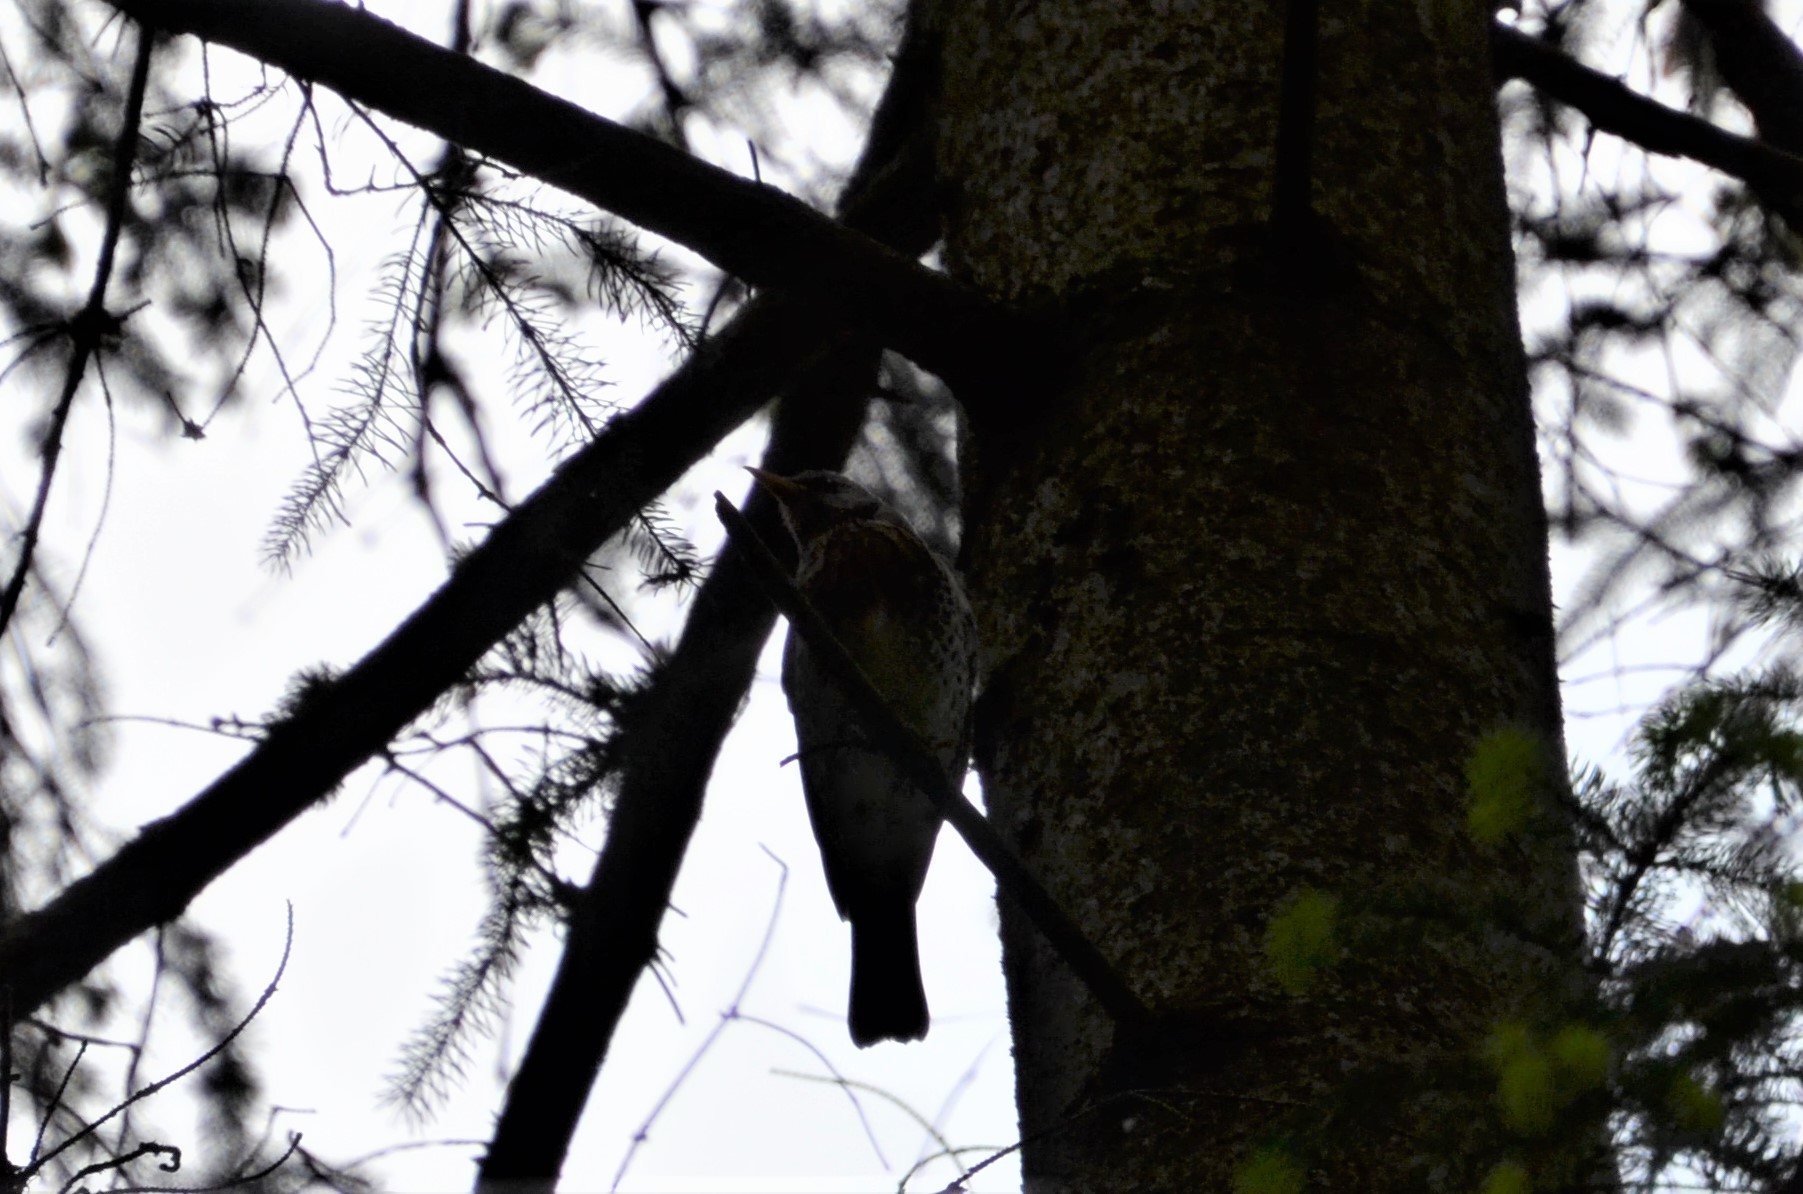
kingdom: Animalia
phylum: Chordata
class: Aves
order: Passeriformes
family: Turdidae
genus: Turdus
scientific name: Turdus pilaris
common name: Fieldfare
